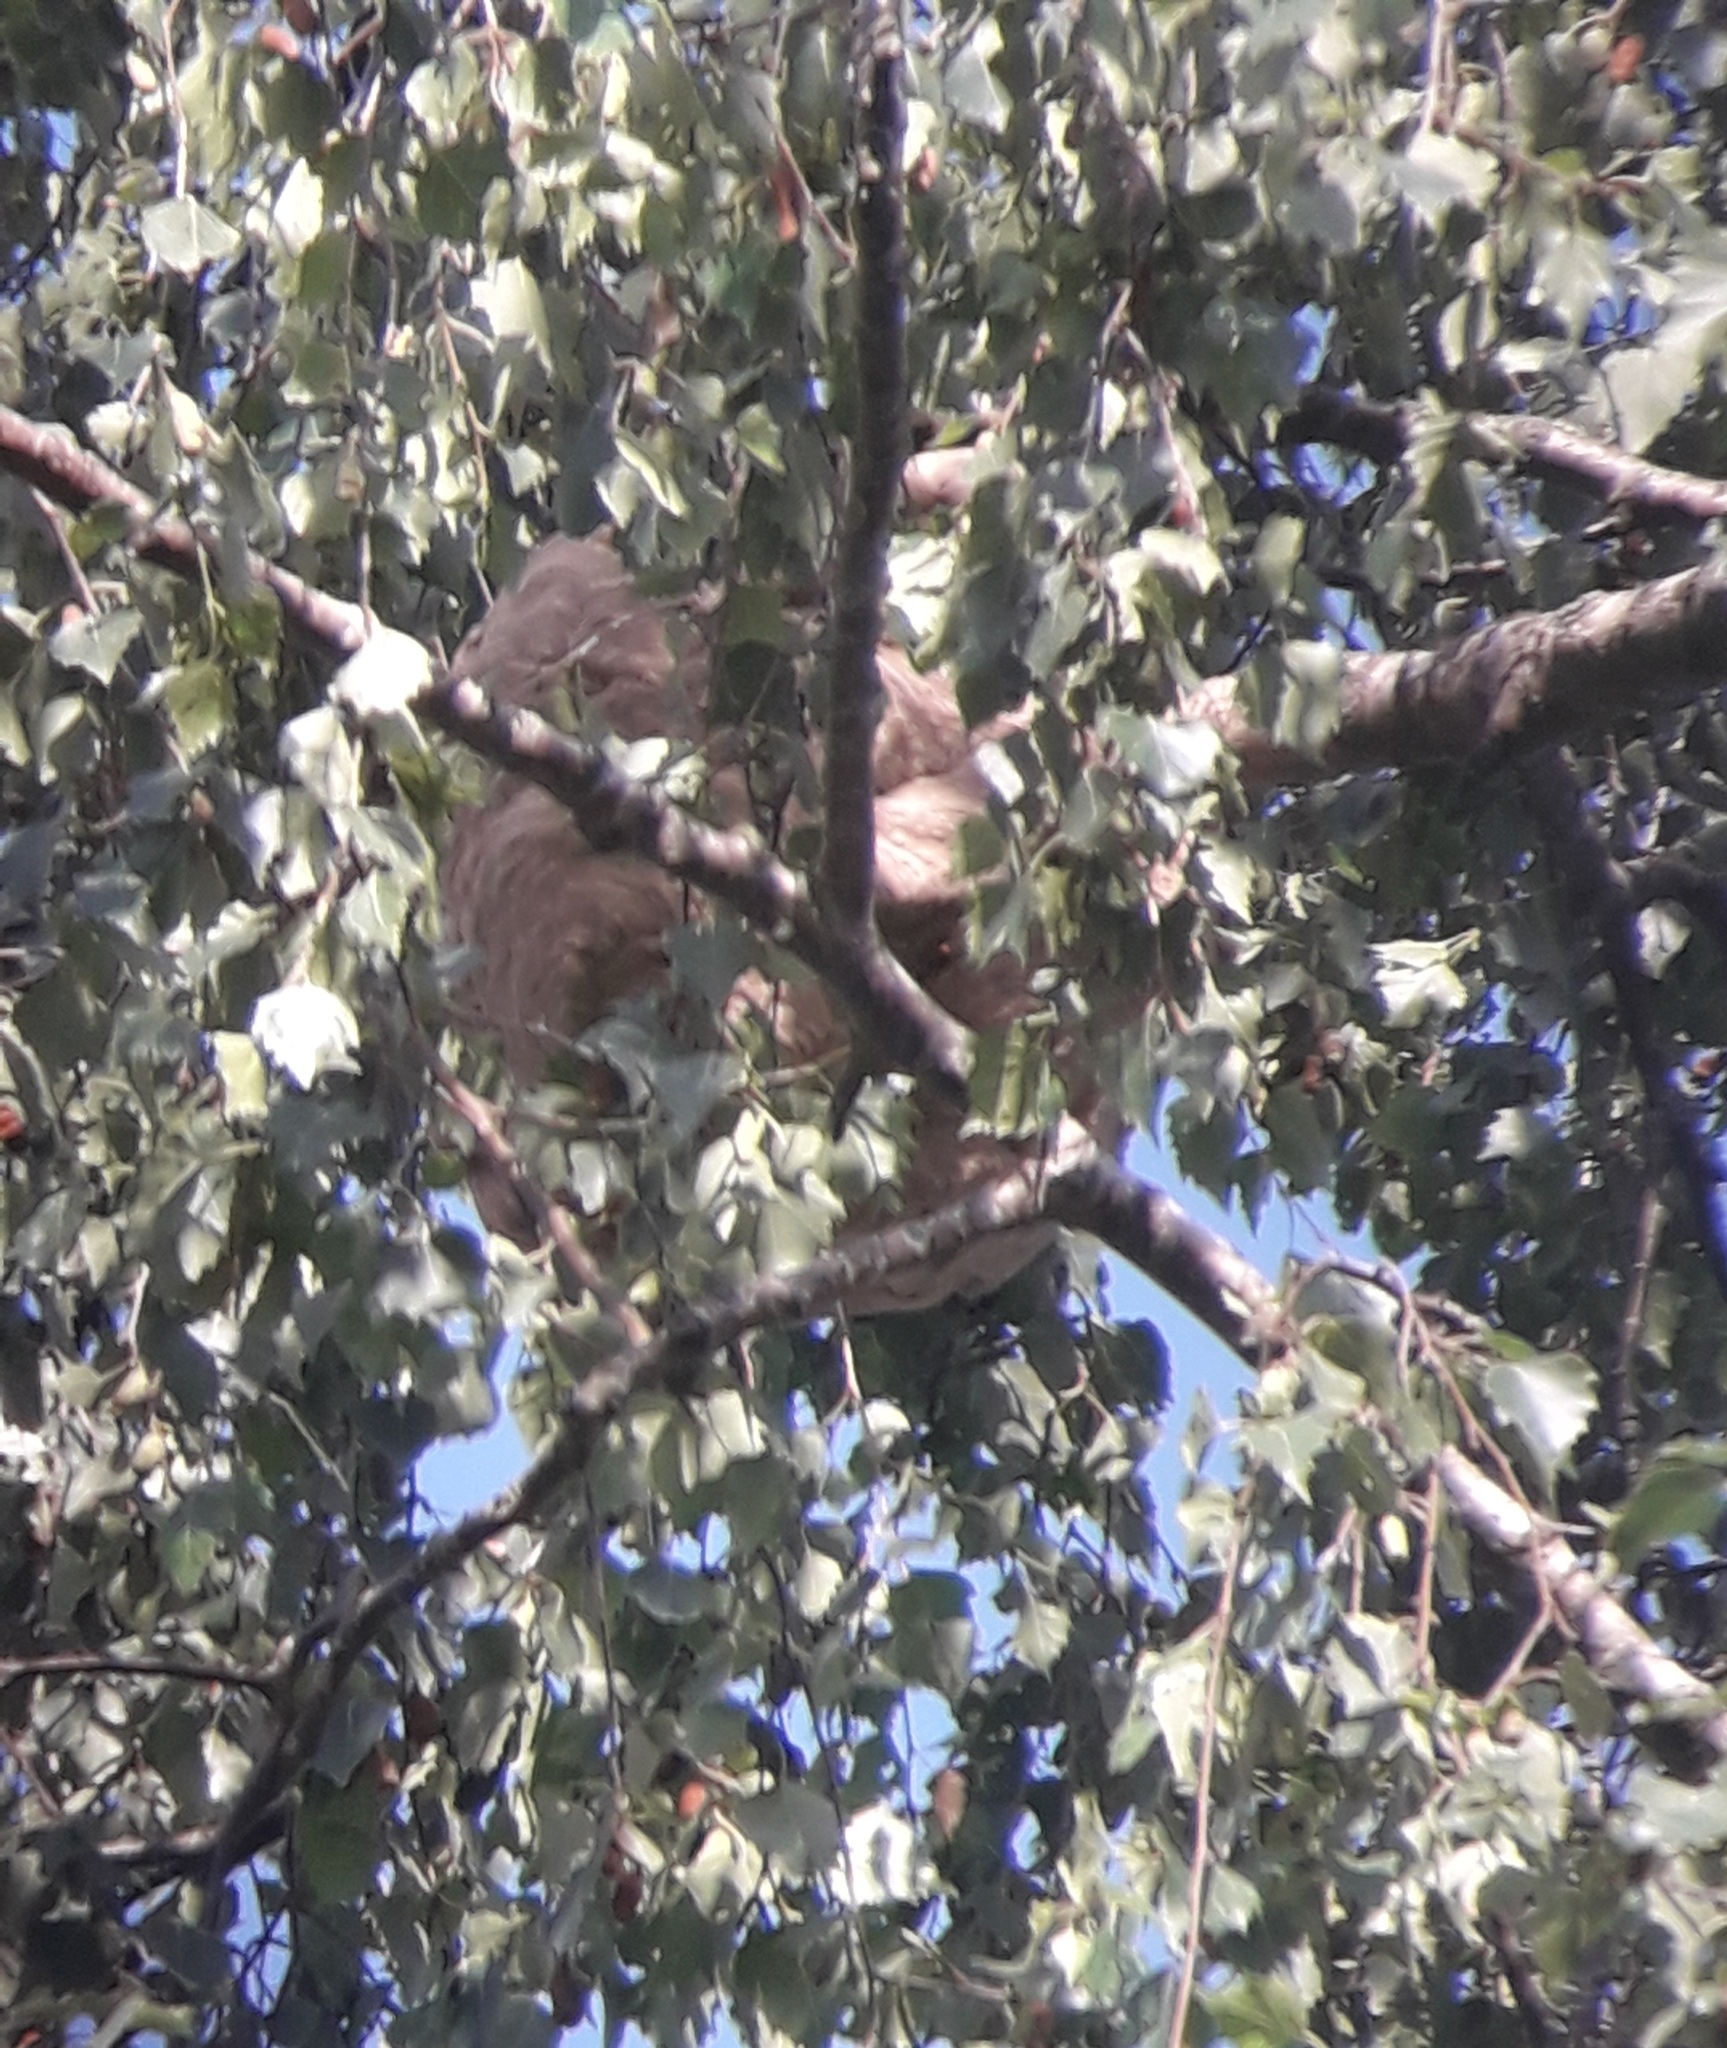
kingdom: Animalia
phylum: Arthropoda
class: Insecta
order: Hymenoptera
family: Vespidae
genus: Vespa
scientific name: Vespa velutina
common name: Asian hornet
